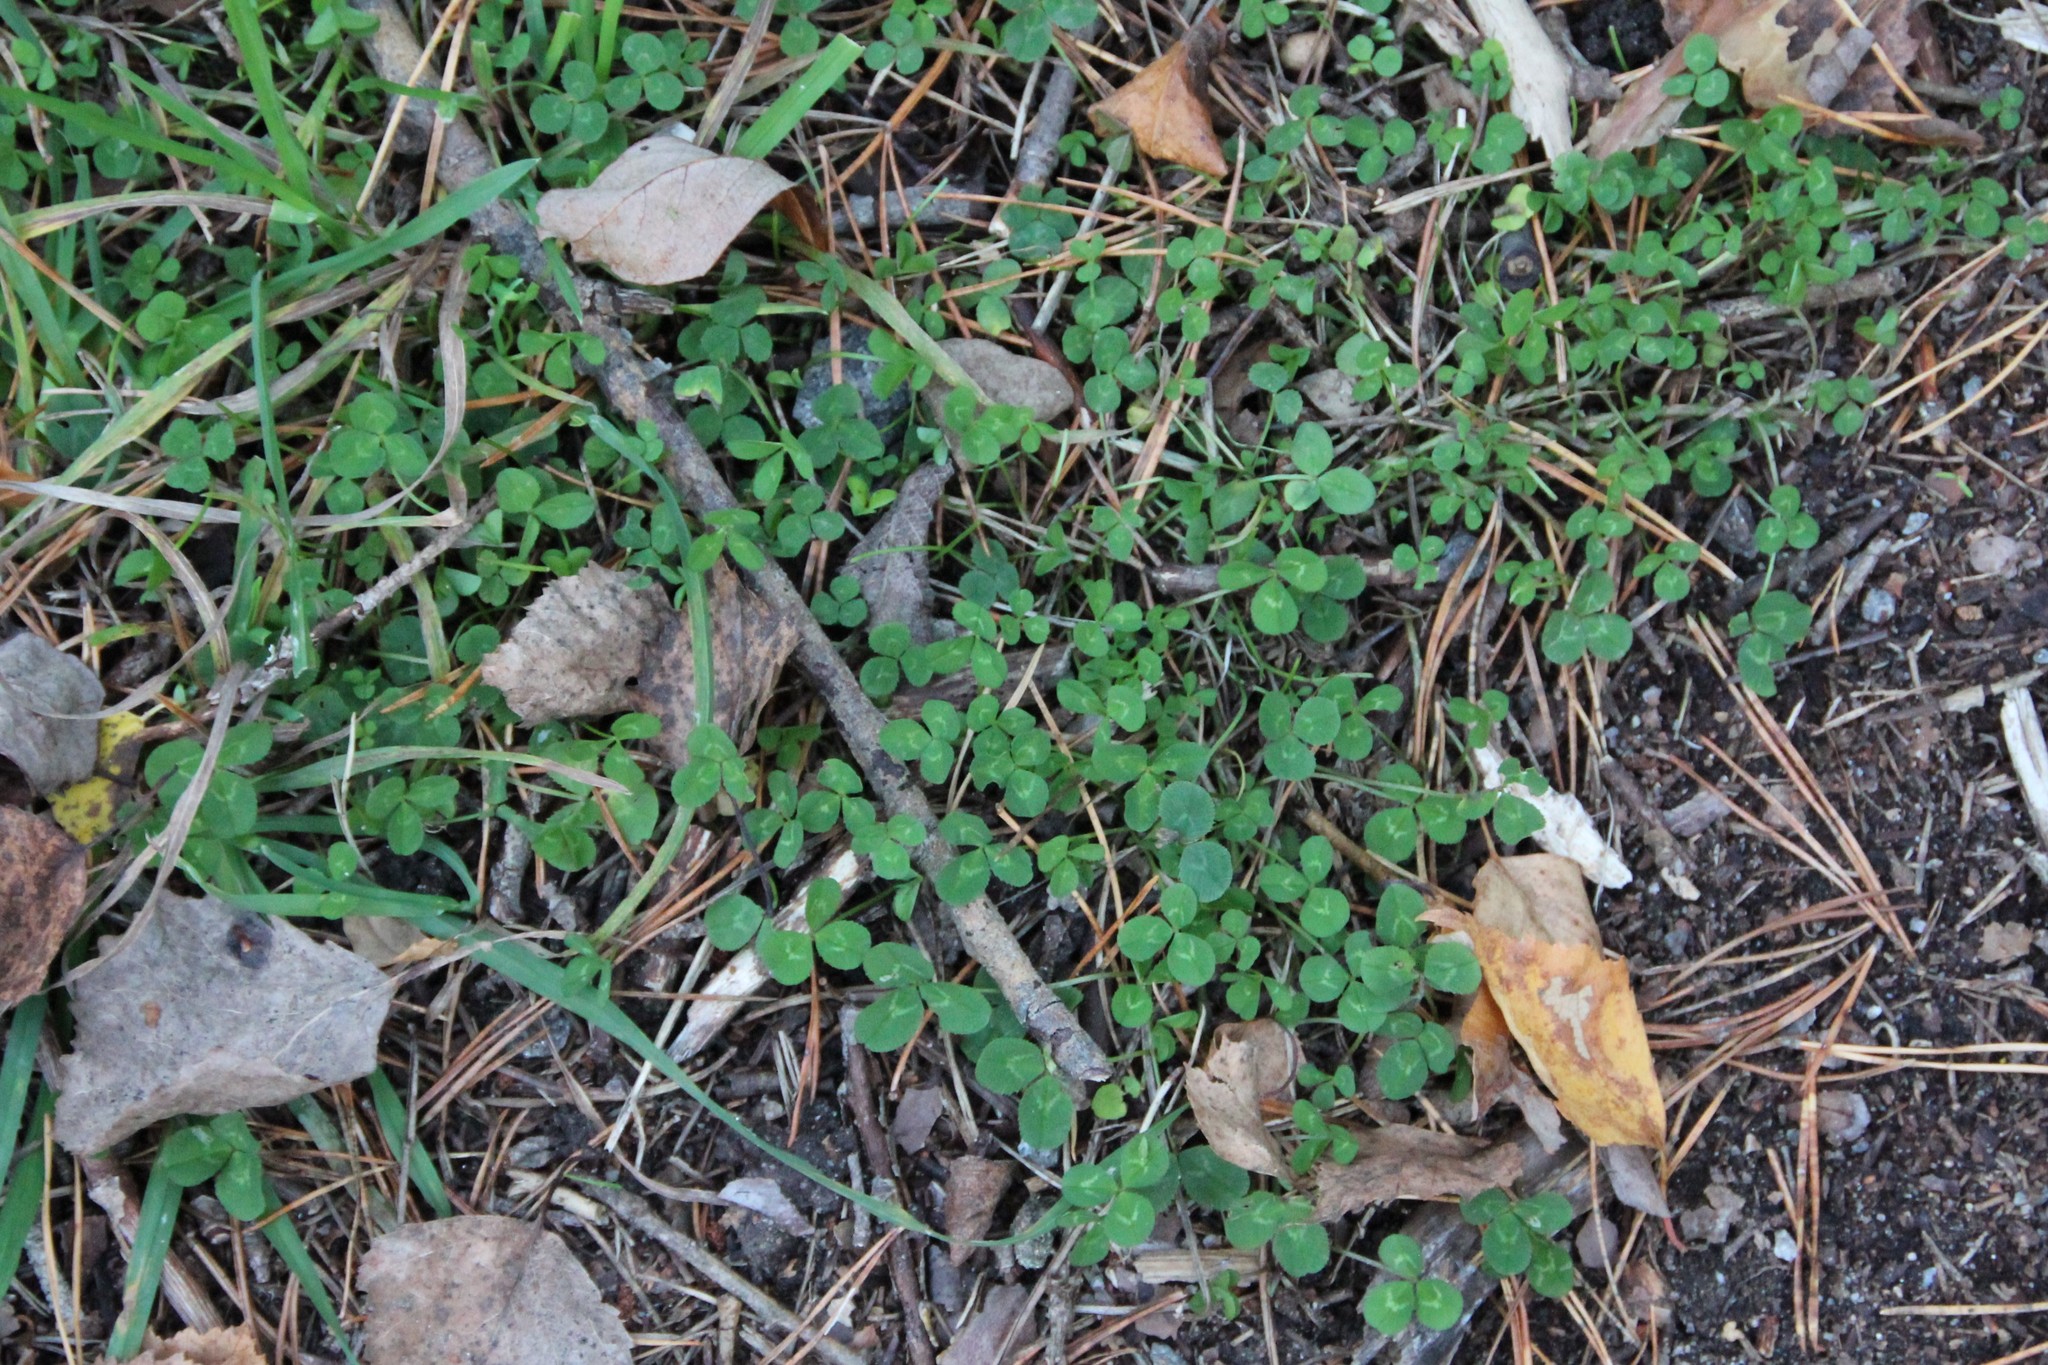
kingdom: Plantae
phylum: Tracheophyta
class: Magnoliopsida
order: Fabales
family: Fabaceae
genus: Trifolium
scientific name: Trifolium repens
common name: White clover
